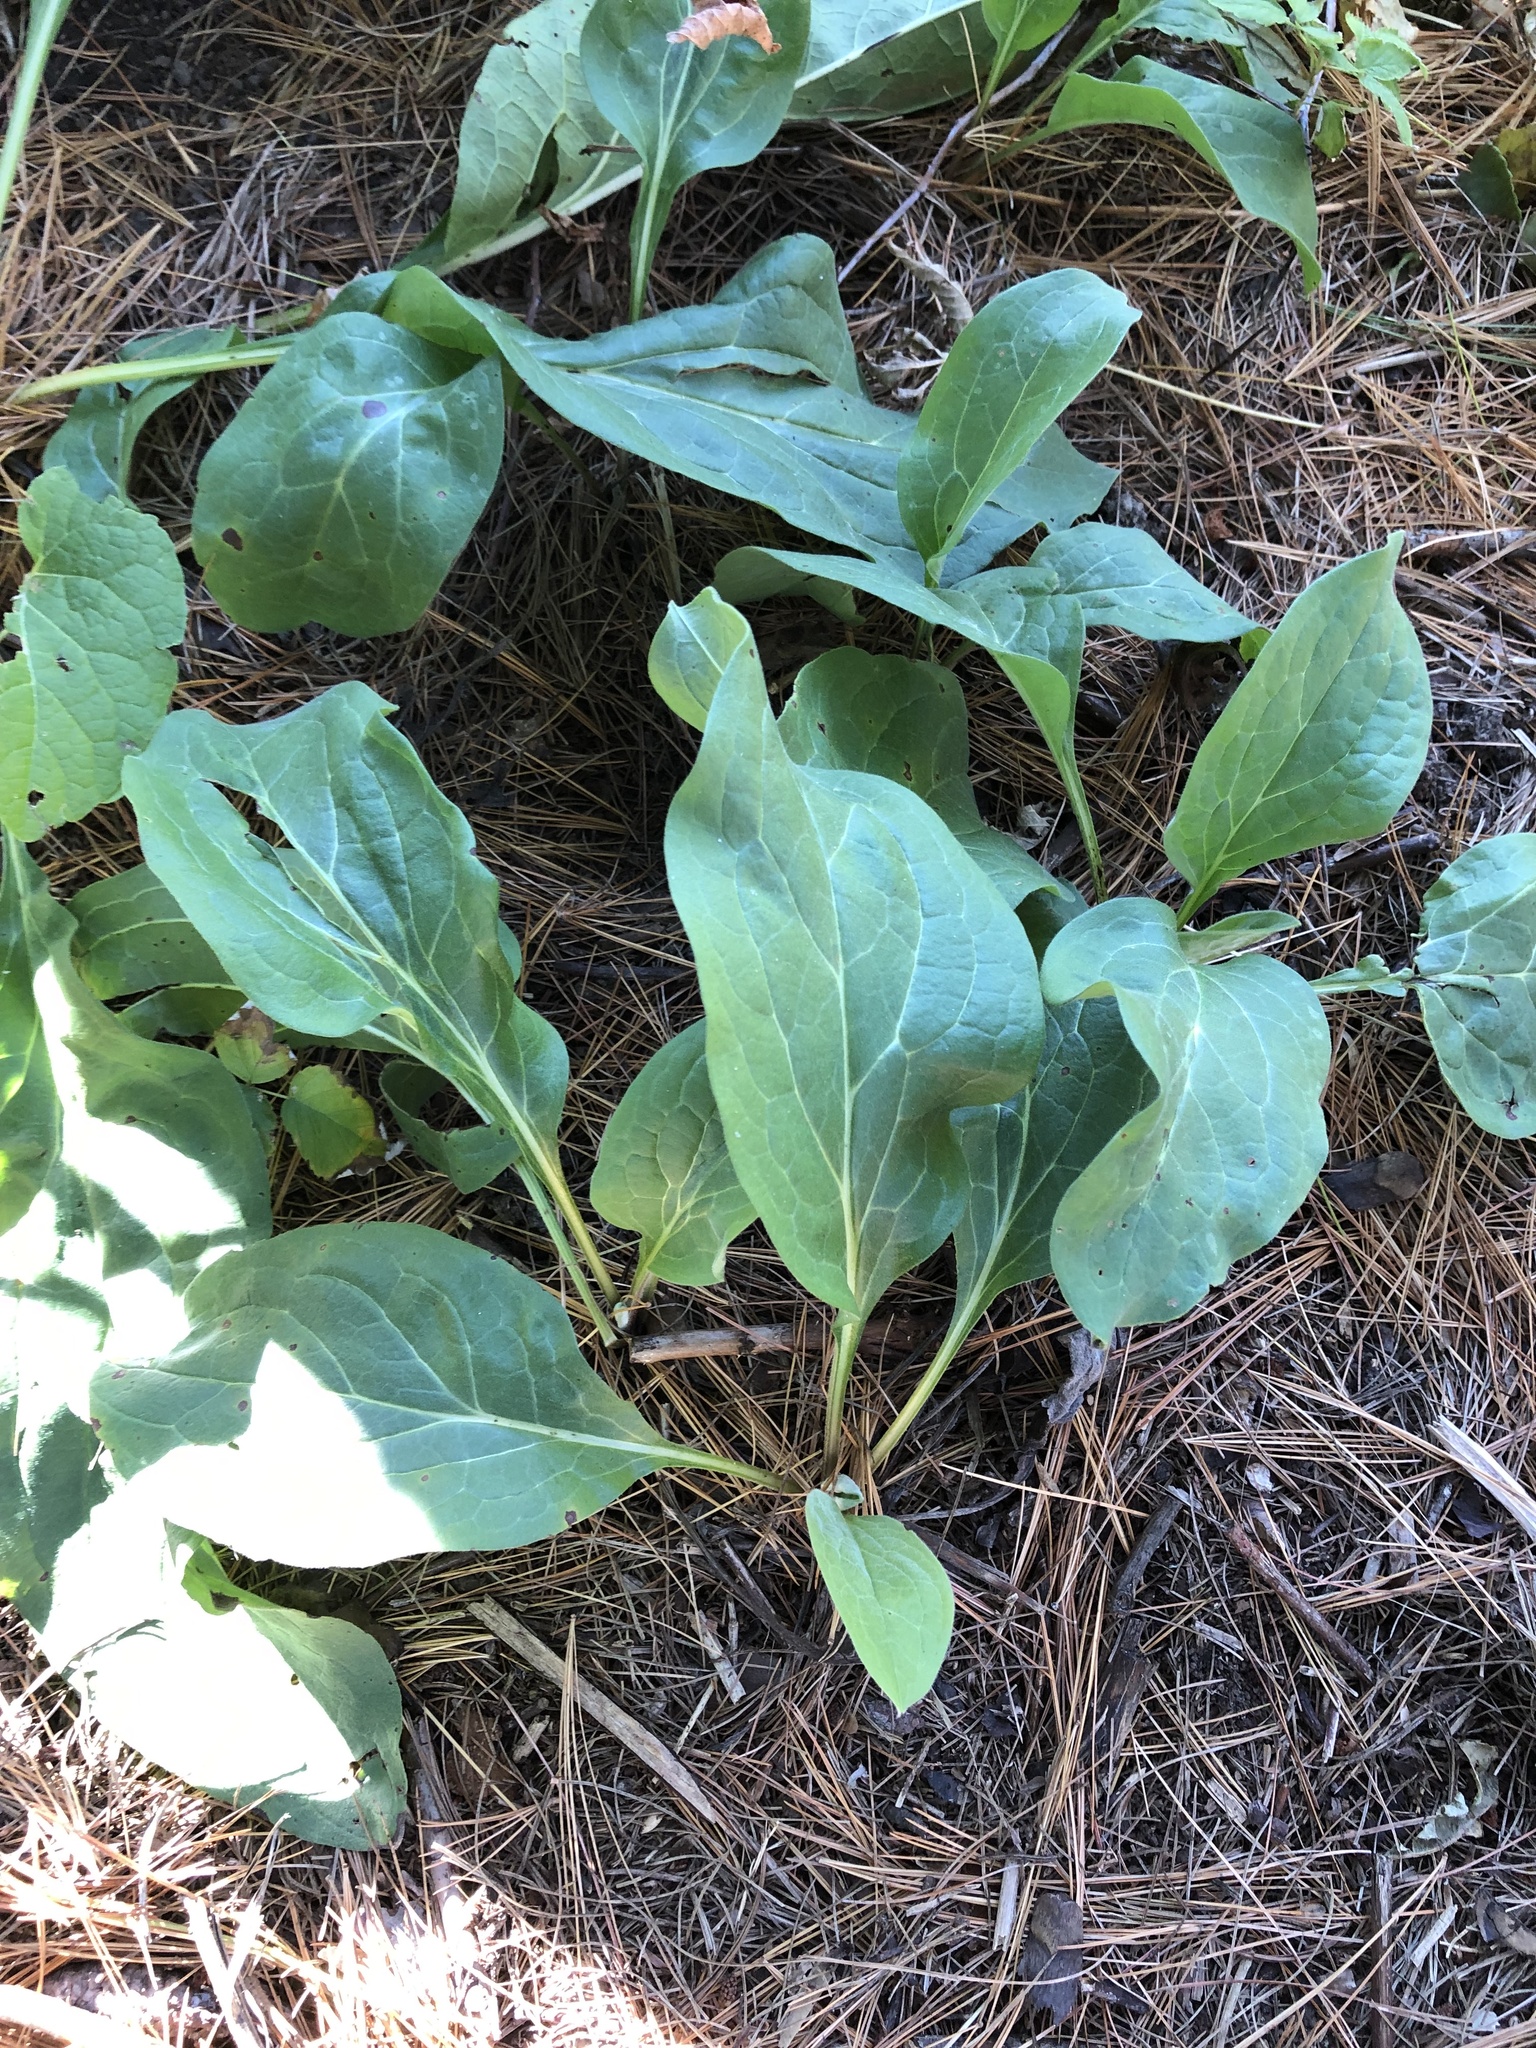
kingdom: Plantae
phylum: Tracheophyta
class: Magnoliopsida
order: Ericales
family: Ericaceae
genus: Pyrola
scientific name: Pyrola elliptica
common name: Shinleaf
